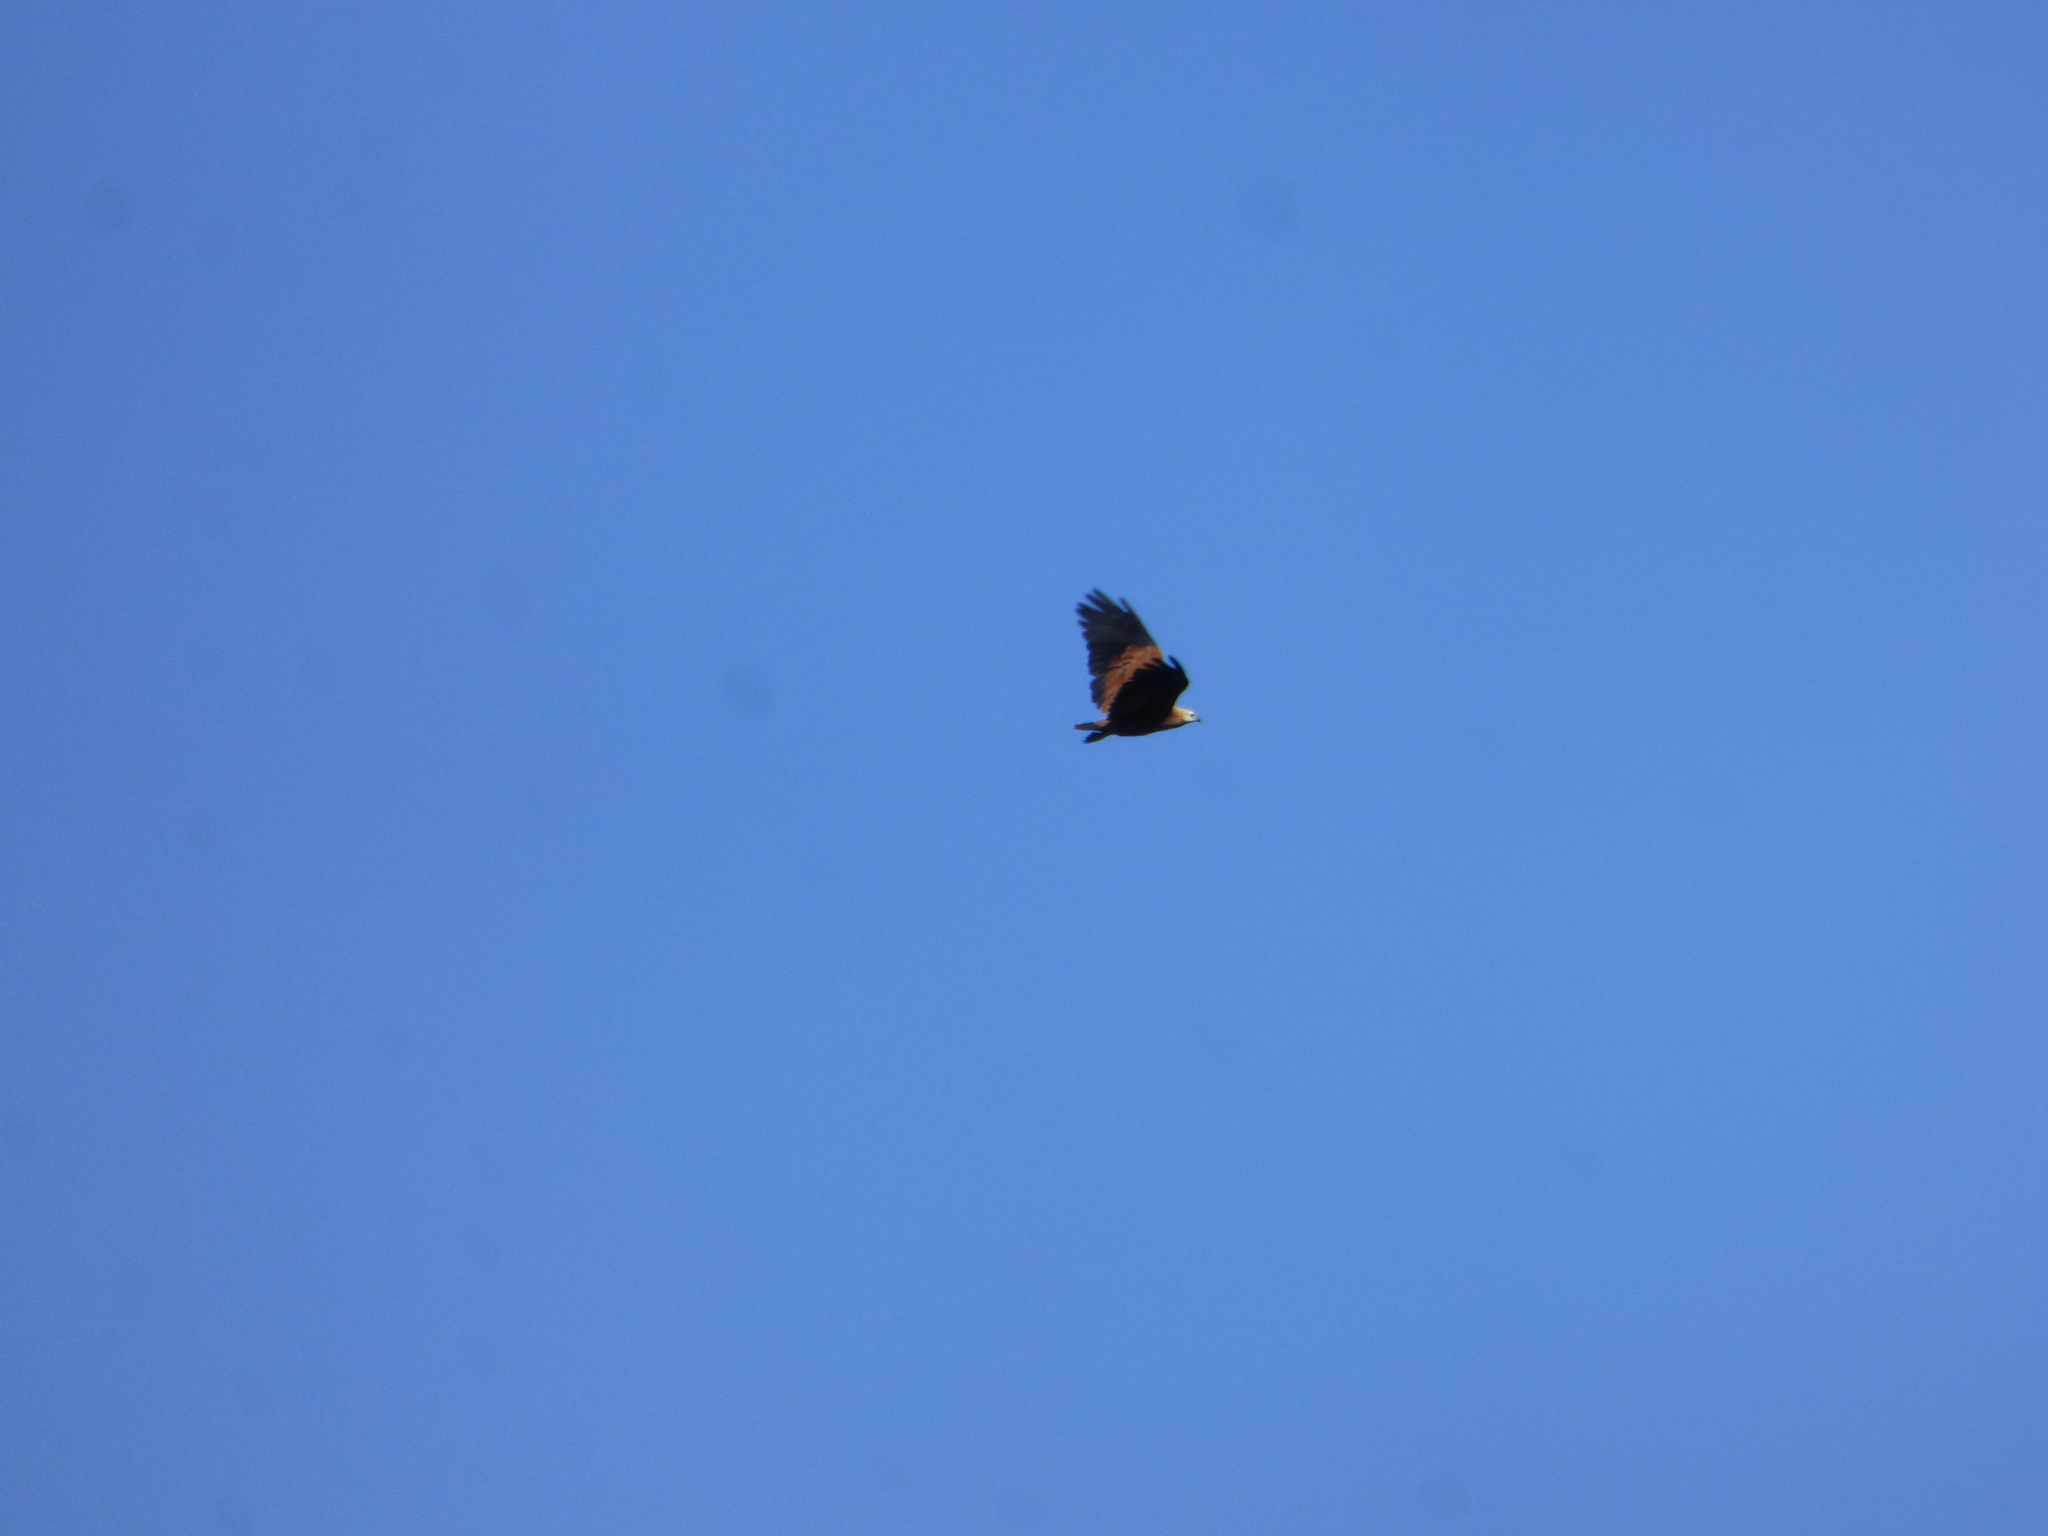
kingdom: Animalia
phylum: Chordata
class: Aves
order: Accipitriformes
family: Accipitridae
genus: Busarellus
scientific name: Busarellus nigricollis
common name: Black-collared hawk
